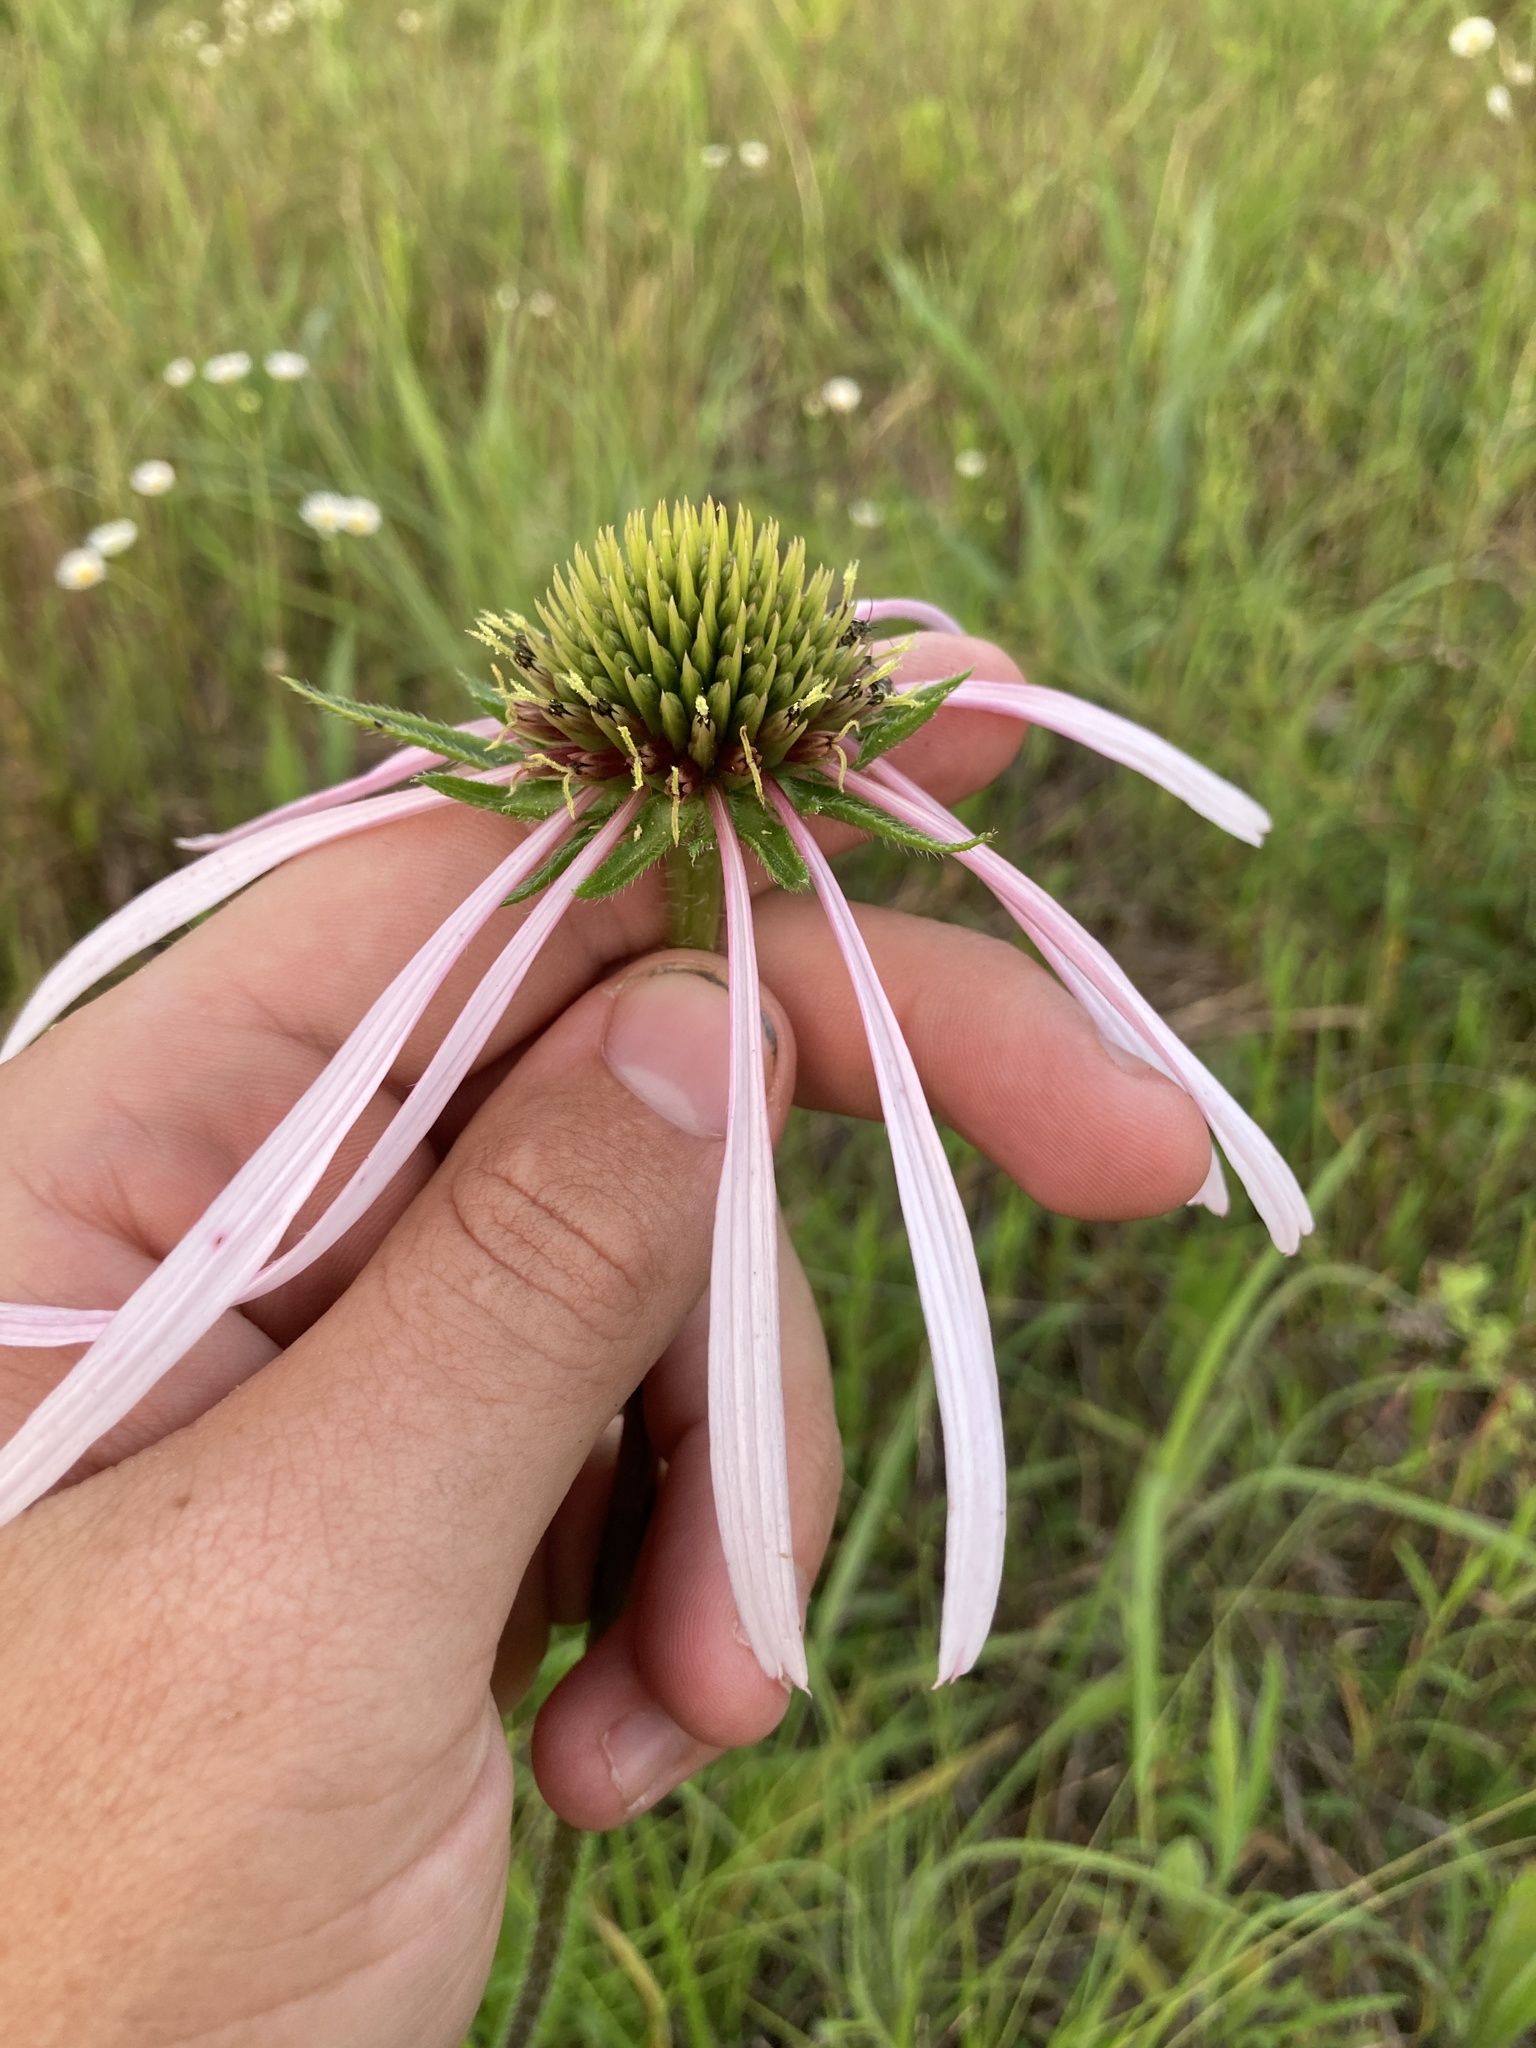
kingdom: Plantae
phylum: Tracheophyta
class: Magnoliopsida
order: Asterales
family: Asteraceae
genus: Echinacea
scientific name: Echinacea pallida
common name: Pale echinacea
